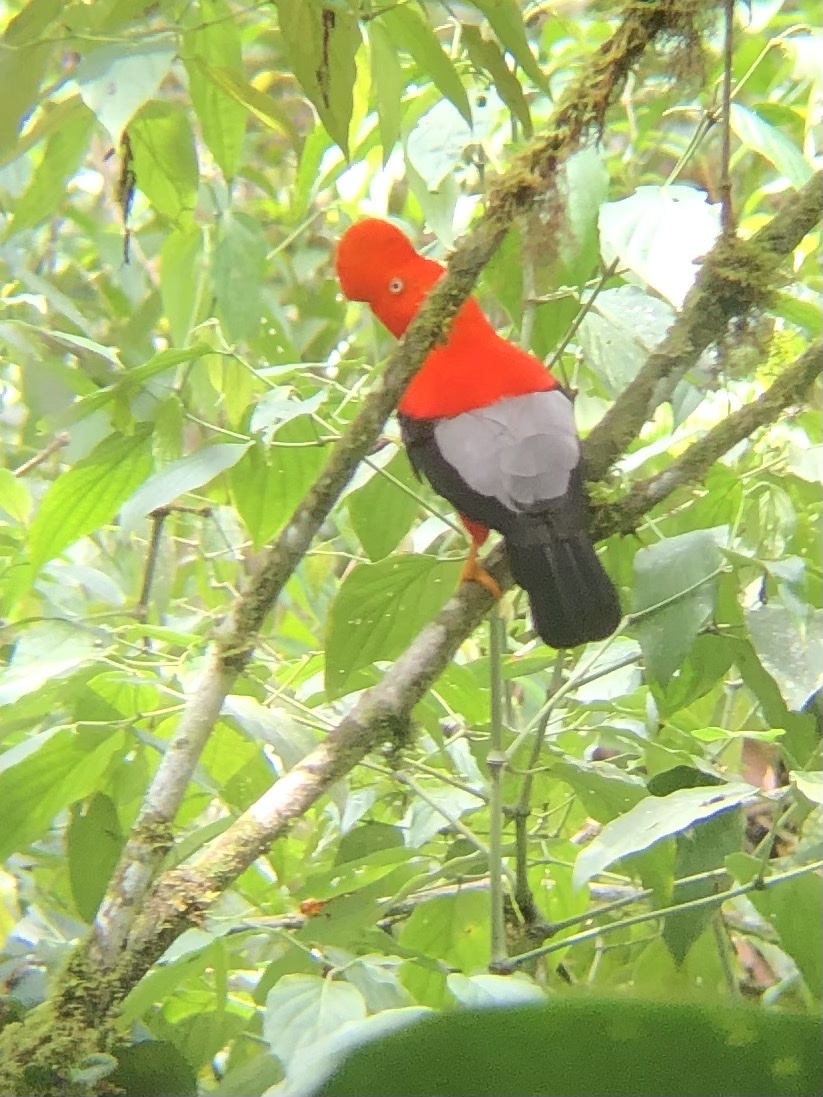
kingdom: Animalia
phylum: Chordata
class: Aves
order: Passeriformes
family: Cotingidae
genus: Rupicola
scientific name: Rupicola peruvianus
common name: Andean cock-of-the-rock
